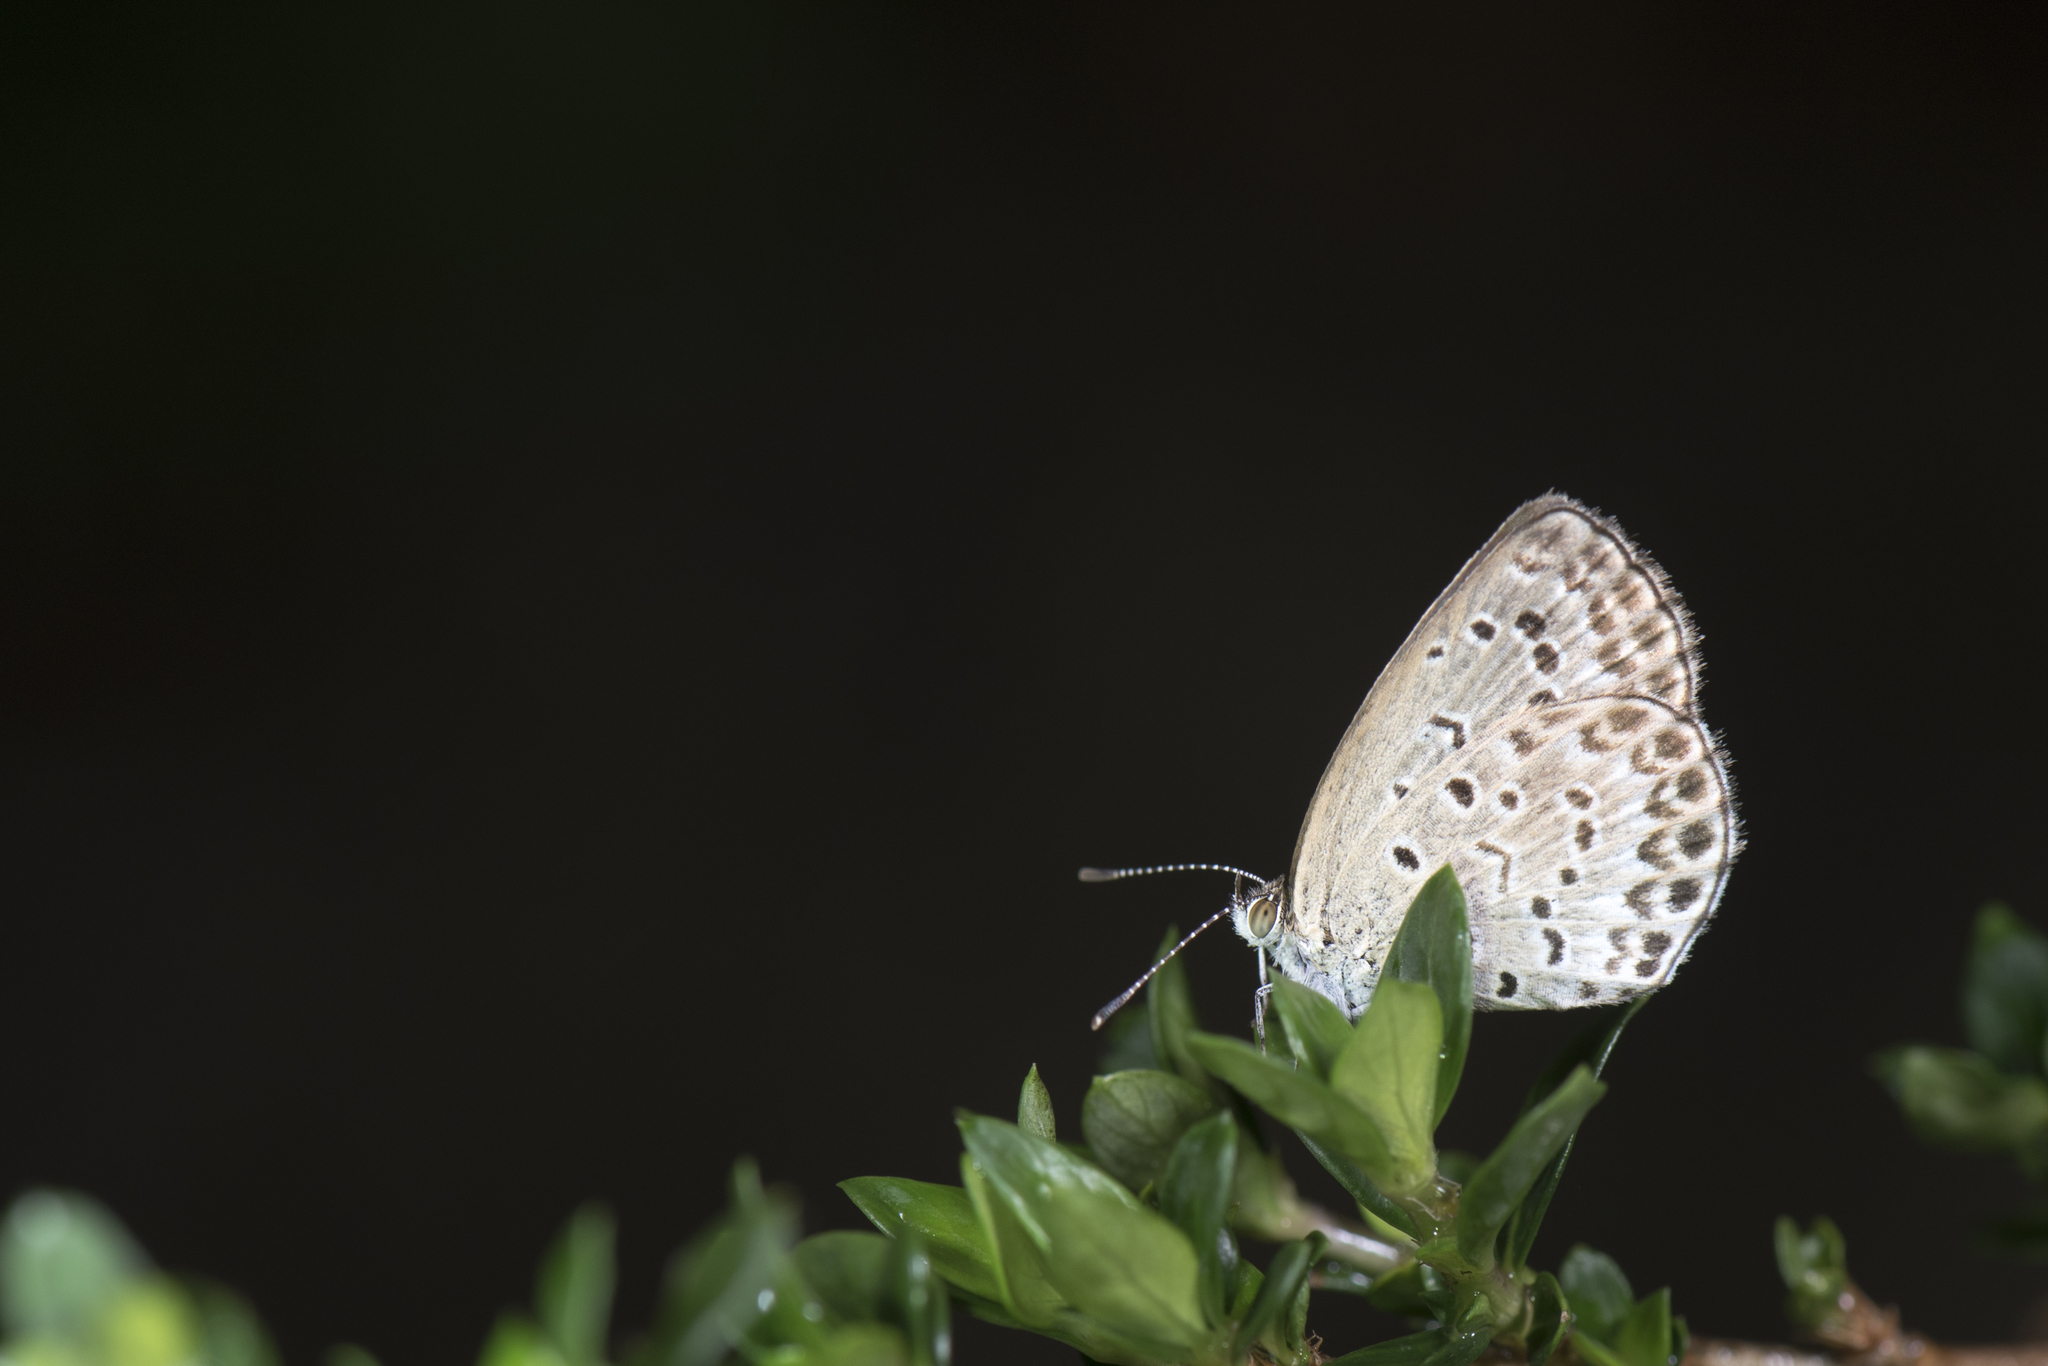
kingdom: Animalia
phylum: Arthropoda
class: Insecta
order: Lepidoptera
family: Lycaenidae
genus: Pseudozizeeria
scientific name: Pseudozizeeria maha
